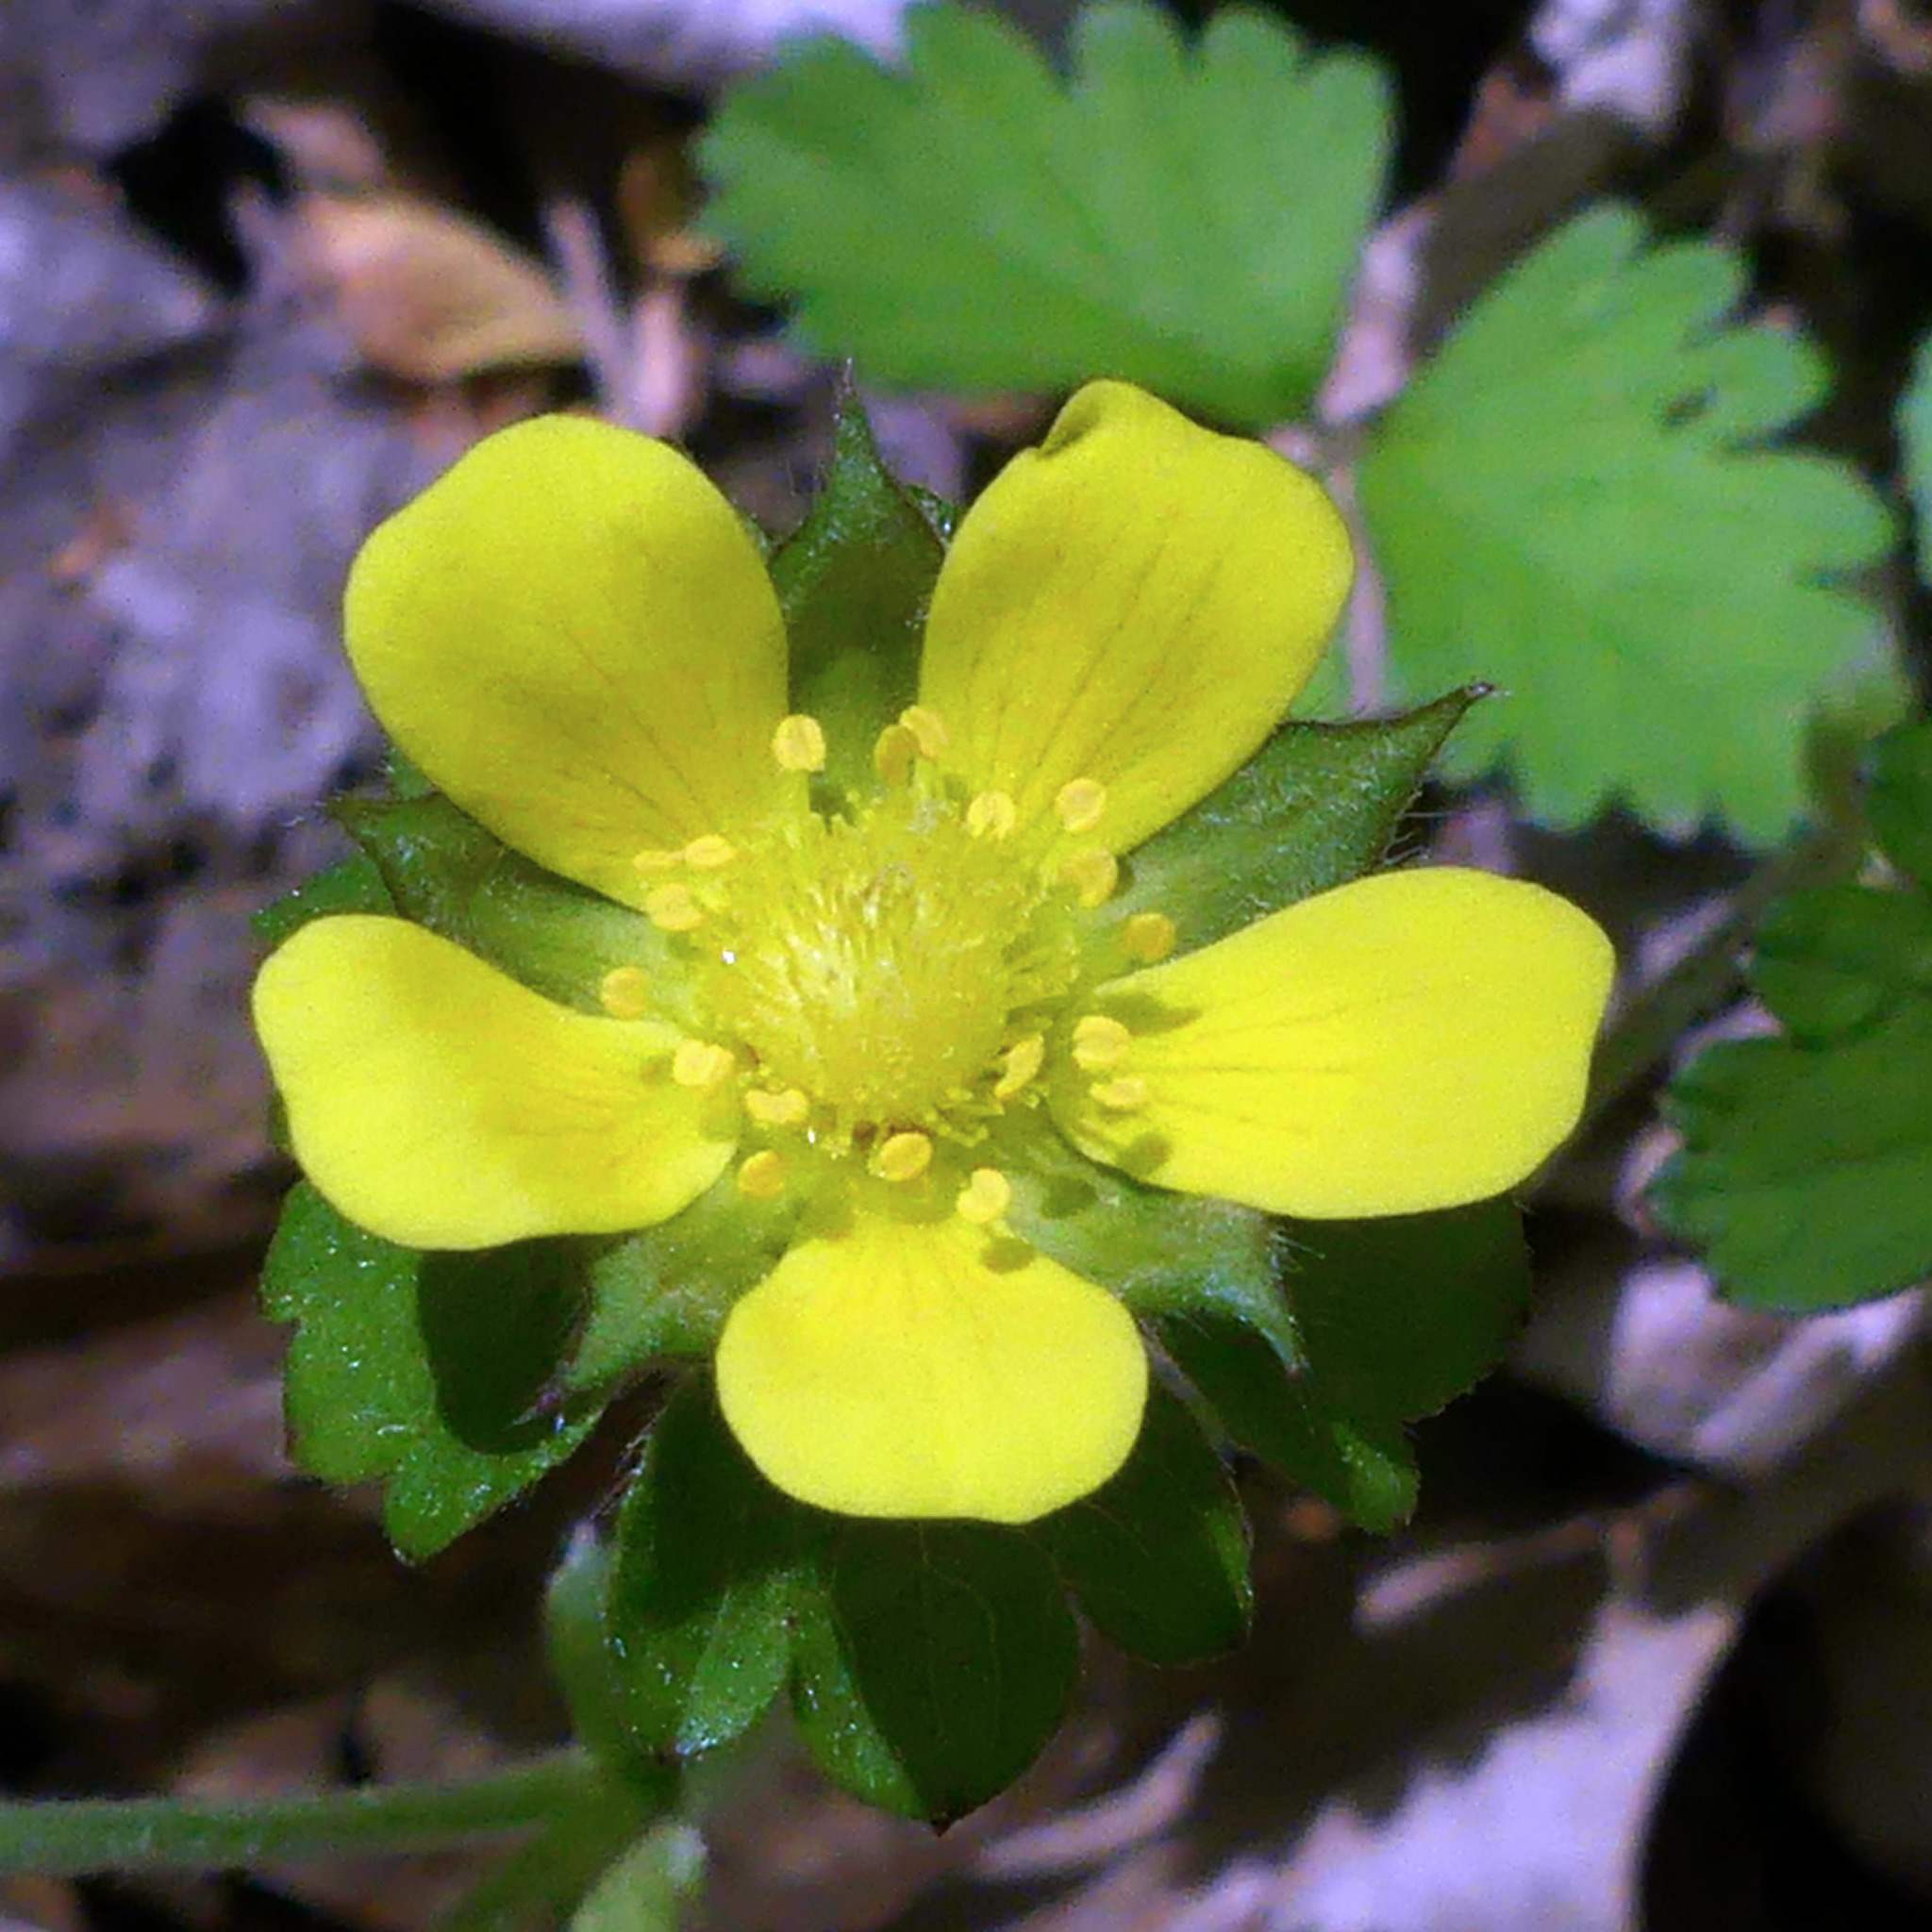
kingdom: Plantae
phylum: Tracheophyta
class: Magnoliopsida
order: Rosales
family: Rosaceae
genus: Potentilla
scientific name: Potentilla indica
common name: Yellow-flowered strawberry
